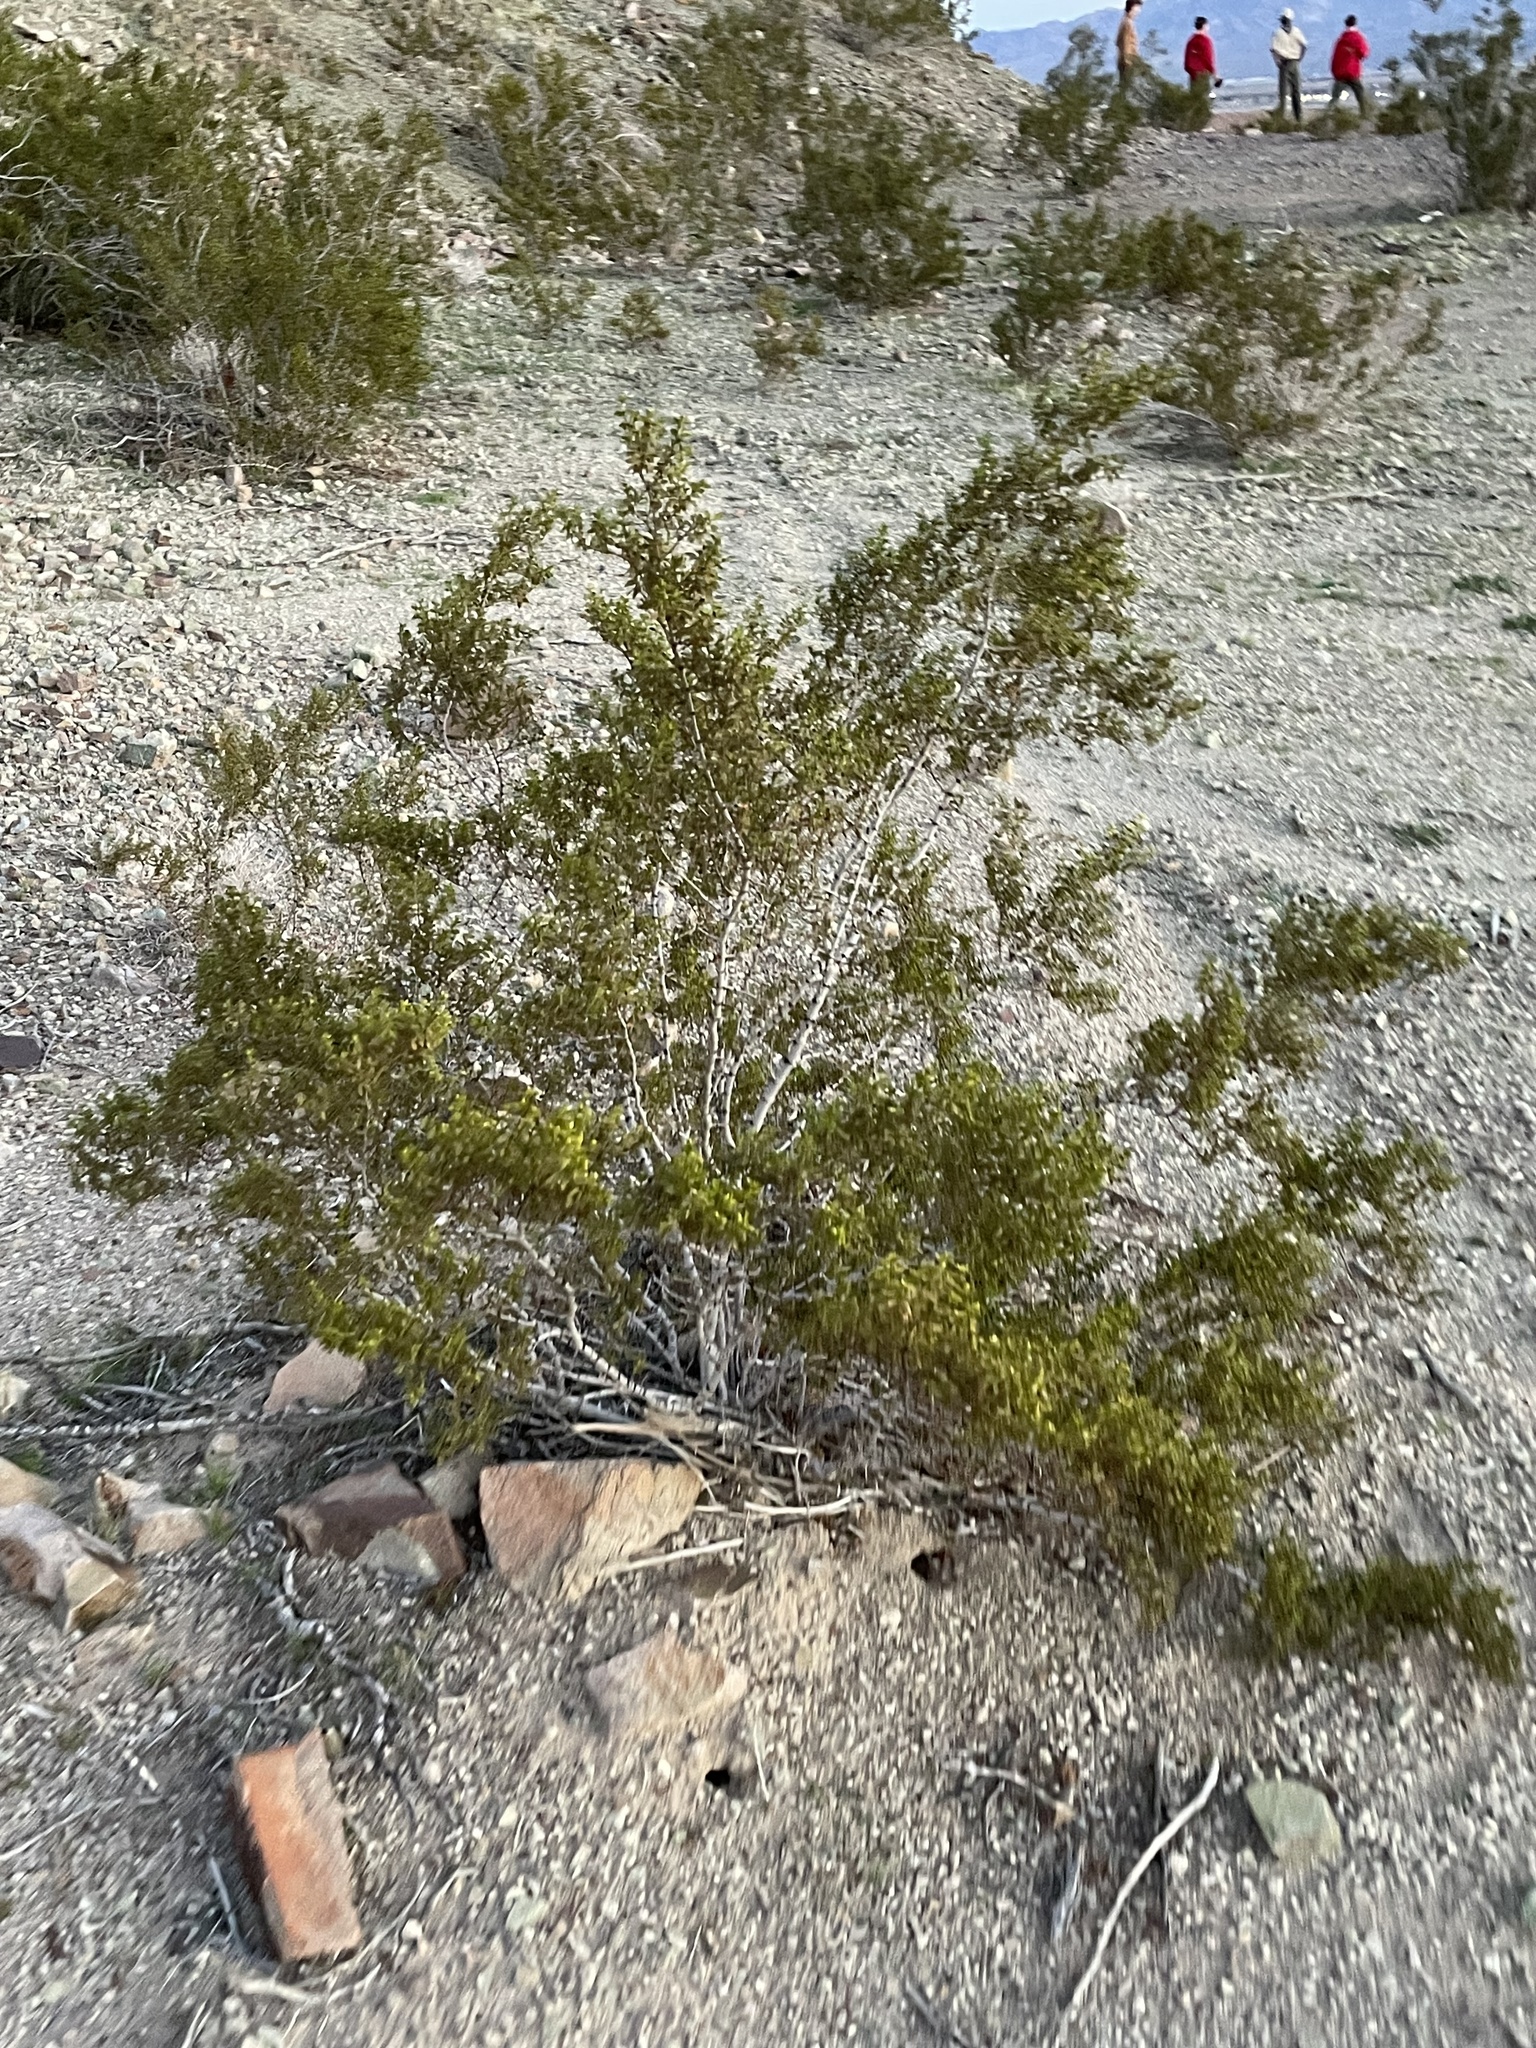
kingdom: Plantae
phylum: Tracheophyta
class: Magnoliopsida
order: Zygophyllales
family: Zygophyllaceae
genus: Larrea
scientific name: Larrea tridentata
